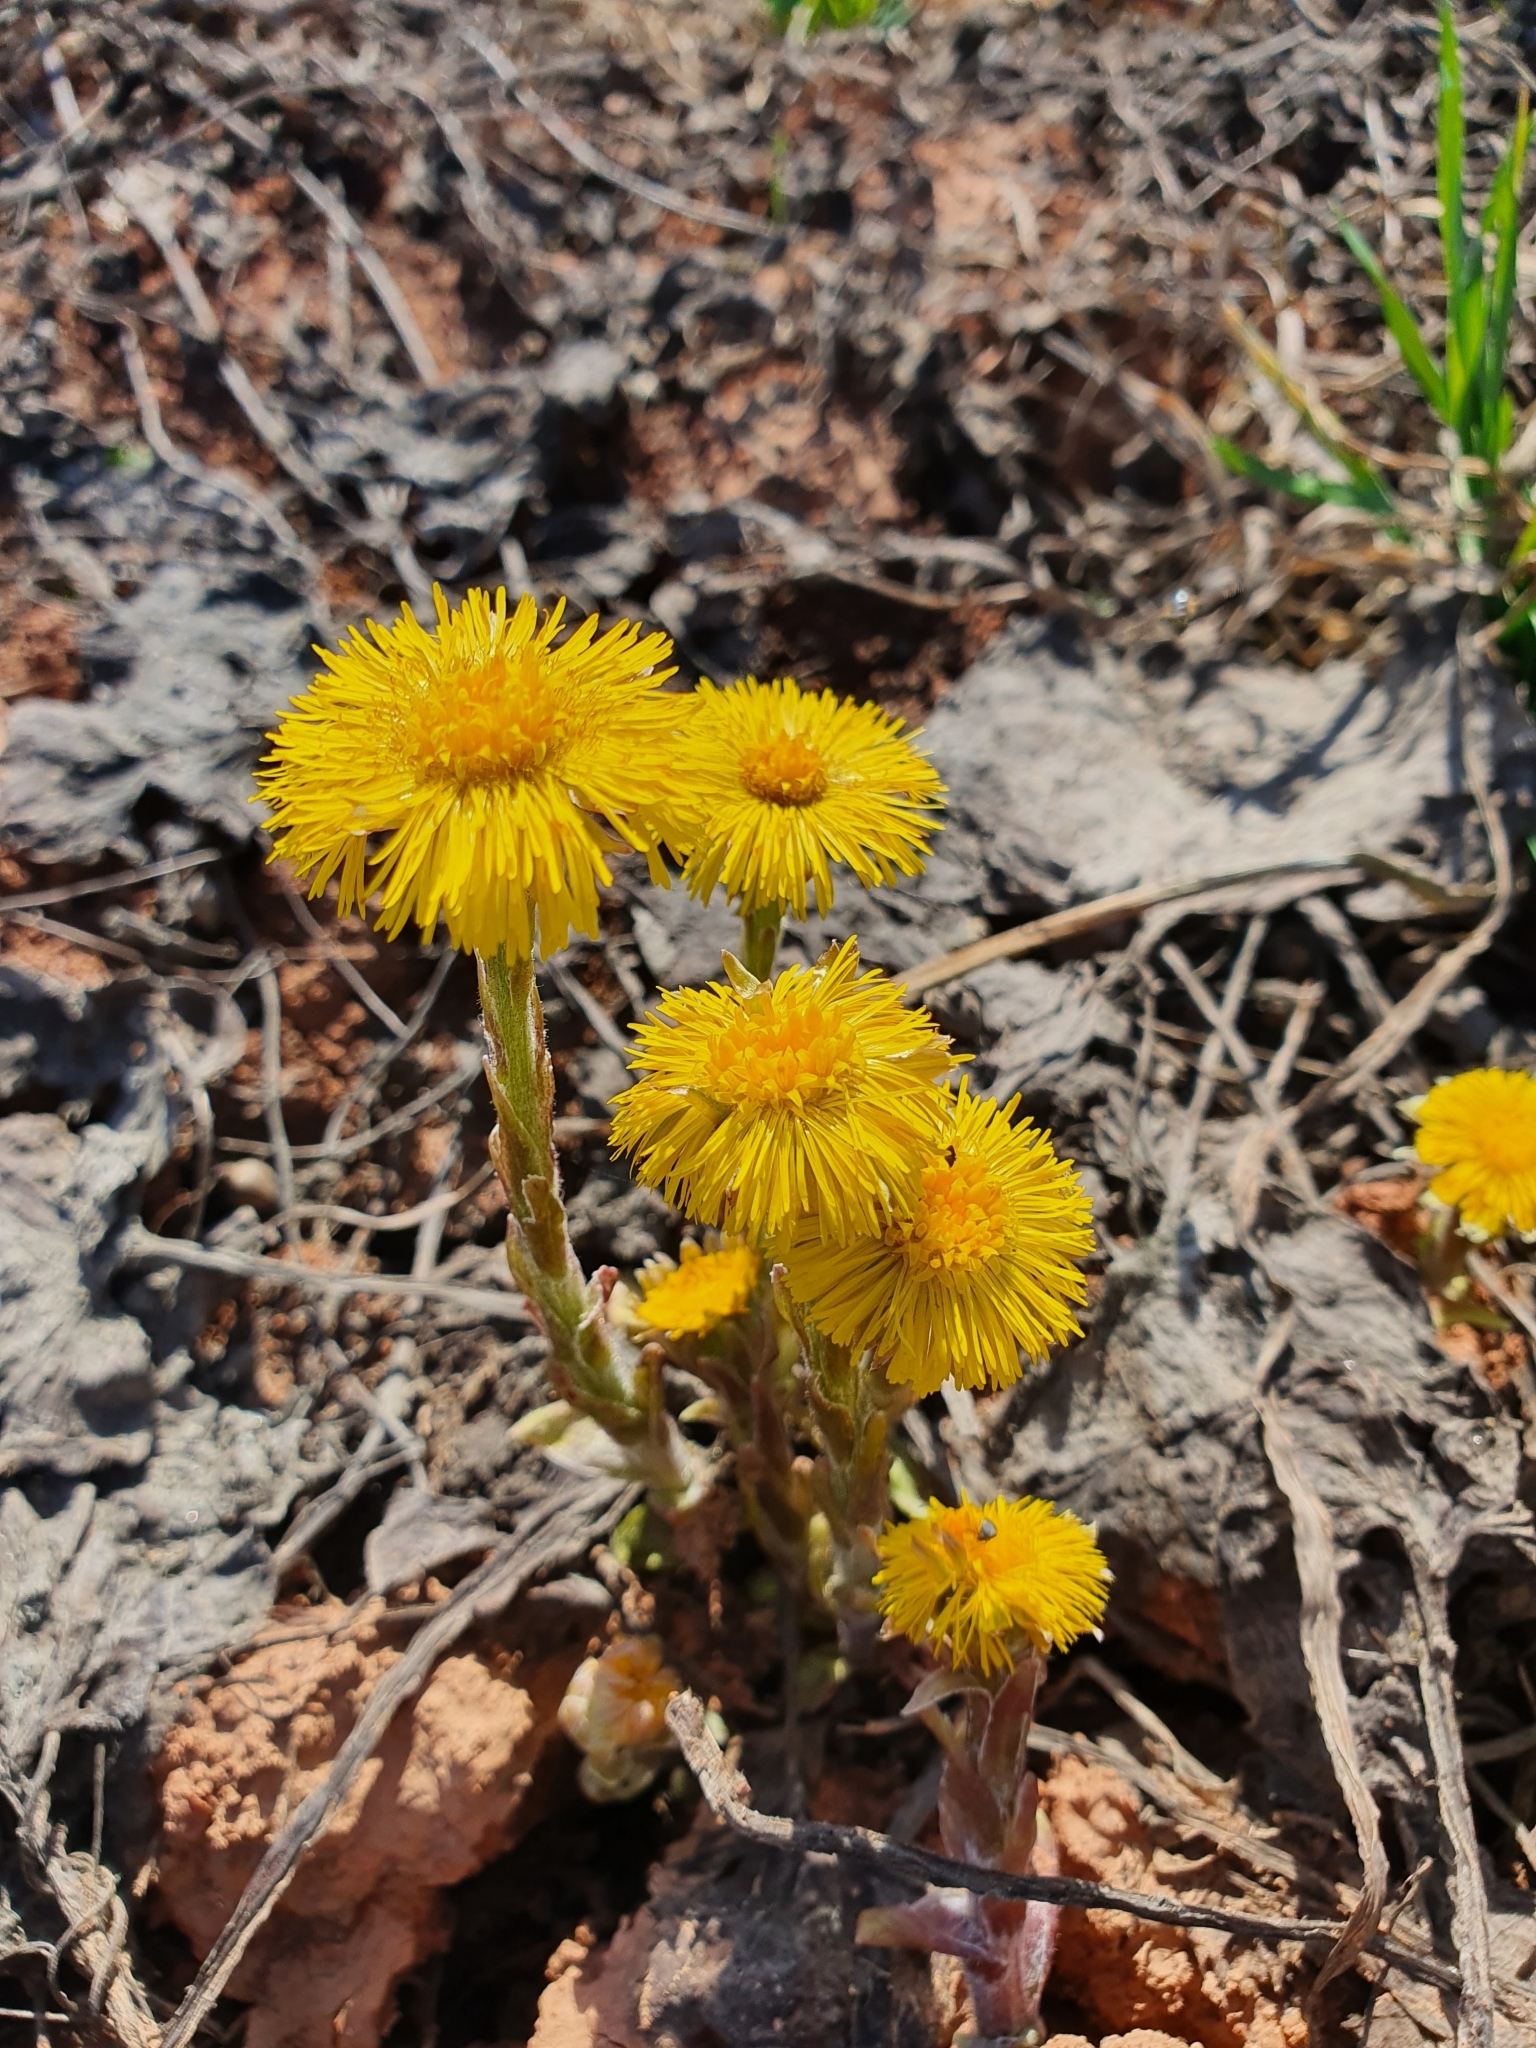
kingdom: Plantae
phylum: Tracheophyta
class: Magnoliopsida
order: Asterales
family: Asteraceae
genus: Tussilago
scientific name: Tussilago farfara
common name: Coltsfoot
